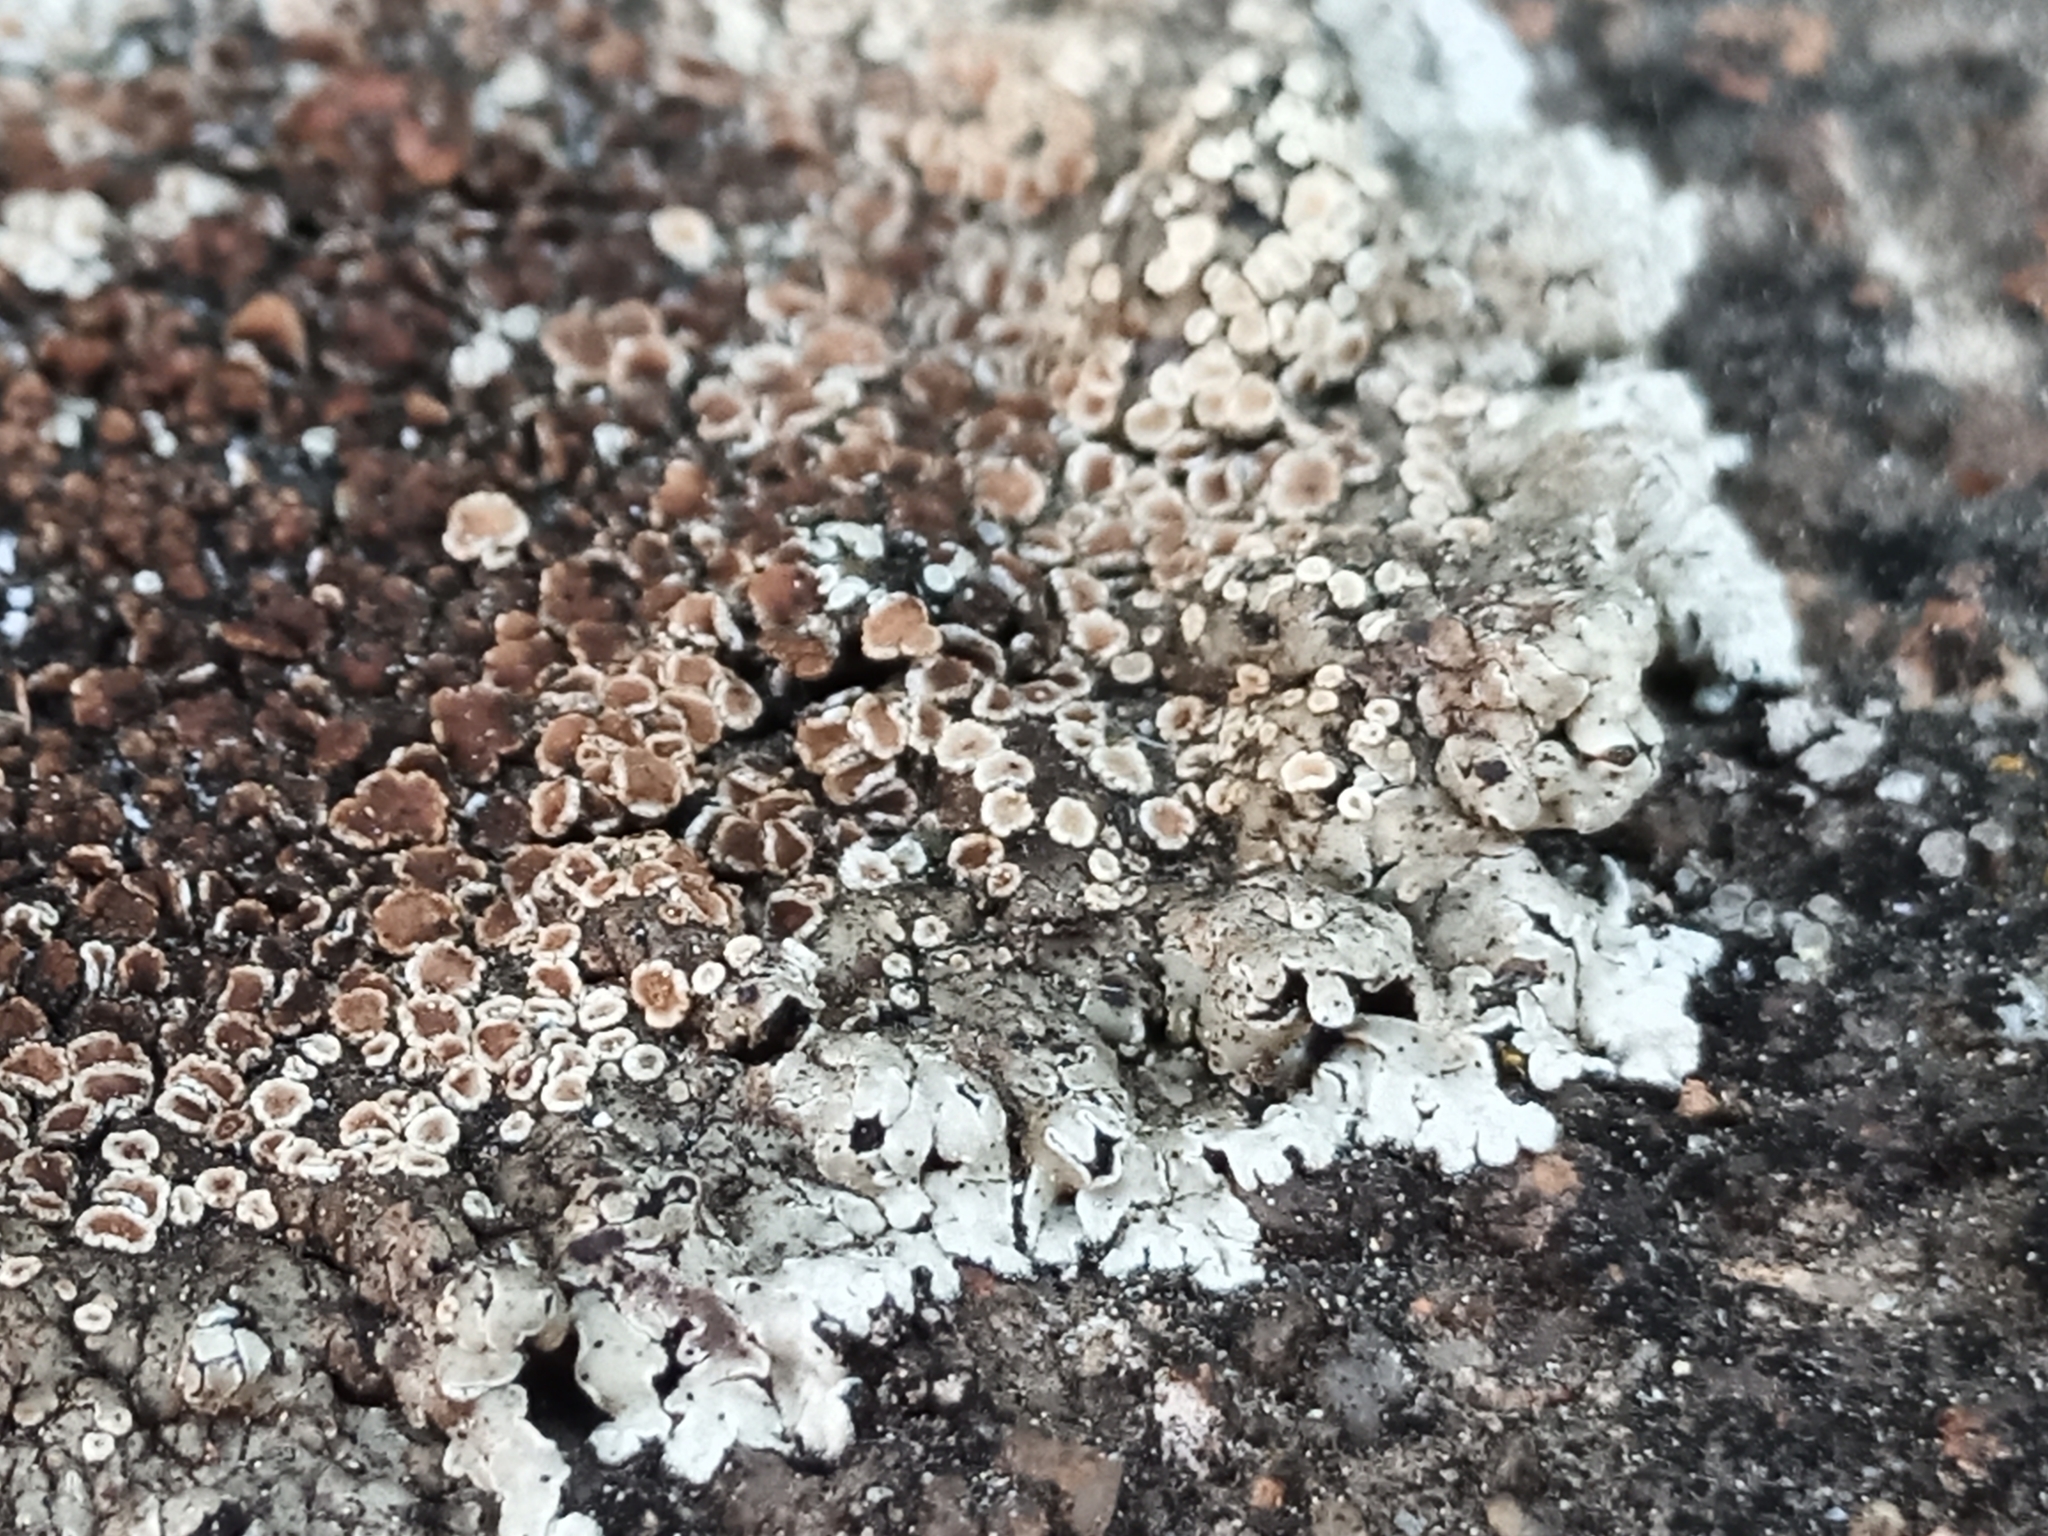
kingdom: Fungi
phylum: Ascomycota
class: Lecanoromycetes
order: Lecanorales
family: Lecanoraceae
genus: Protoparmeliopsis
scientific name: Protoparmeliopsis muralis
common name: Stonewall rim lichen
